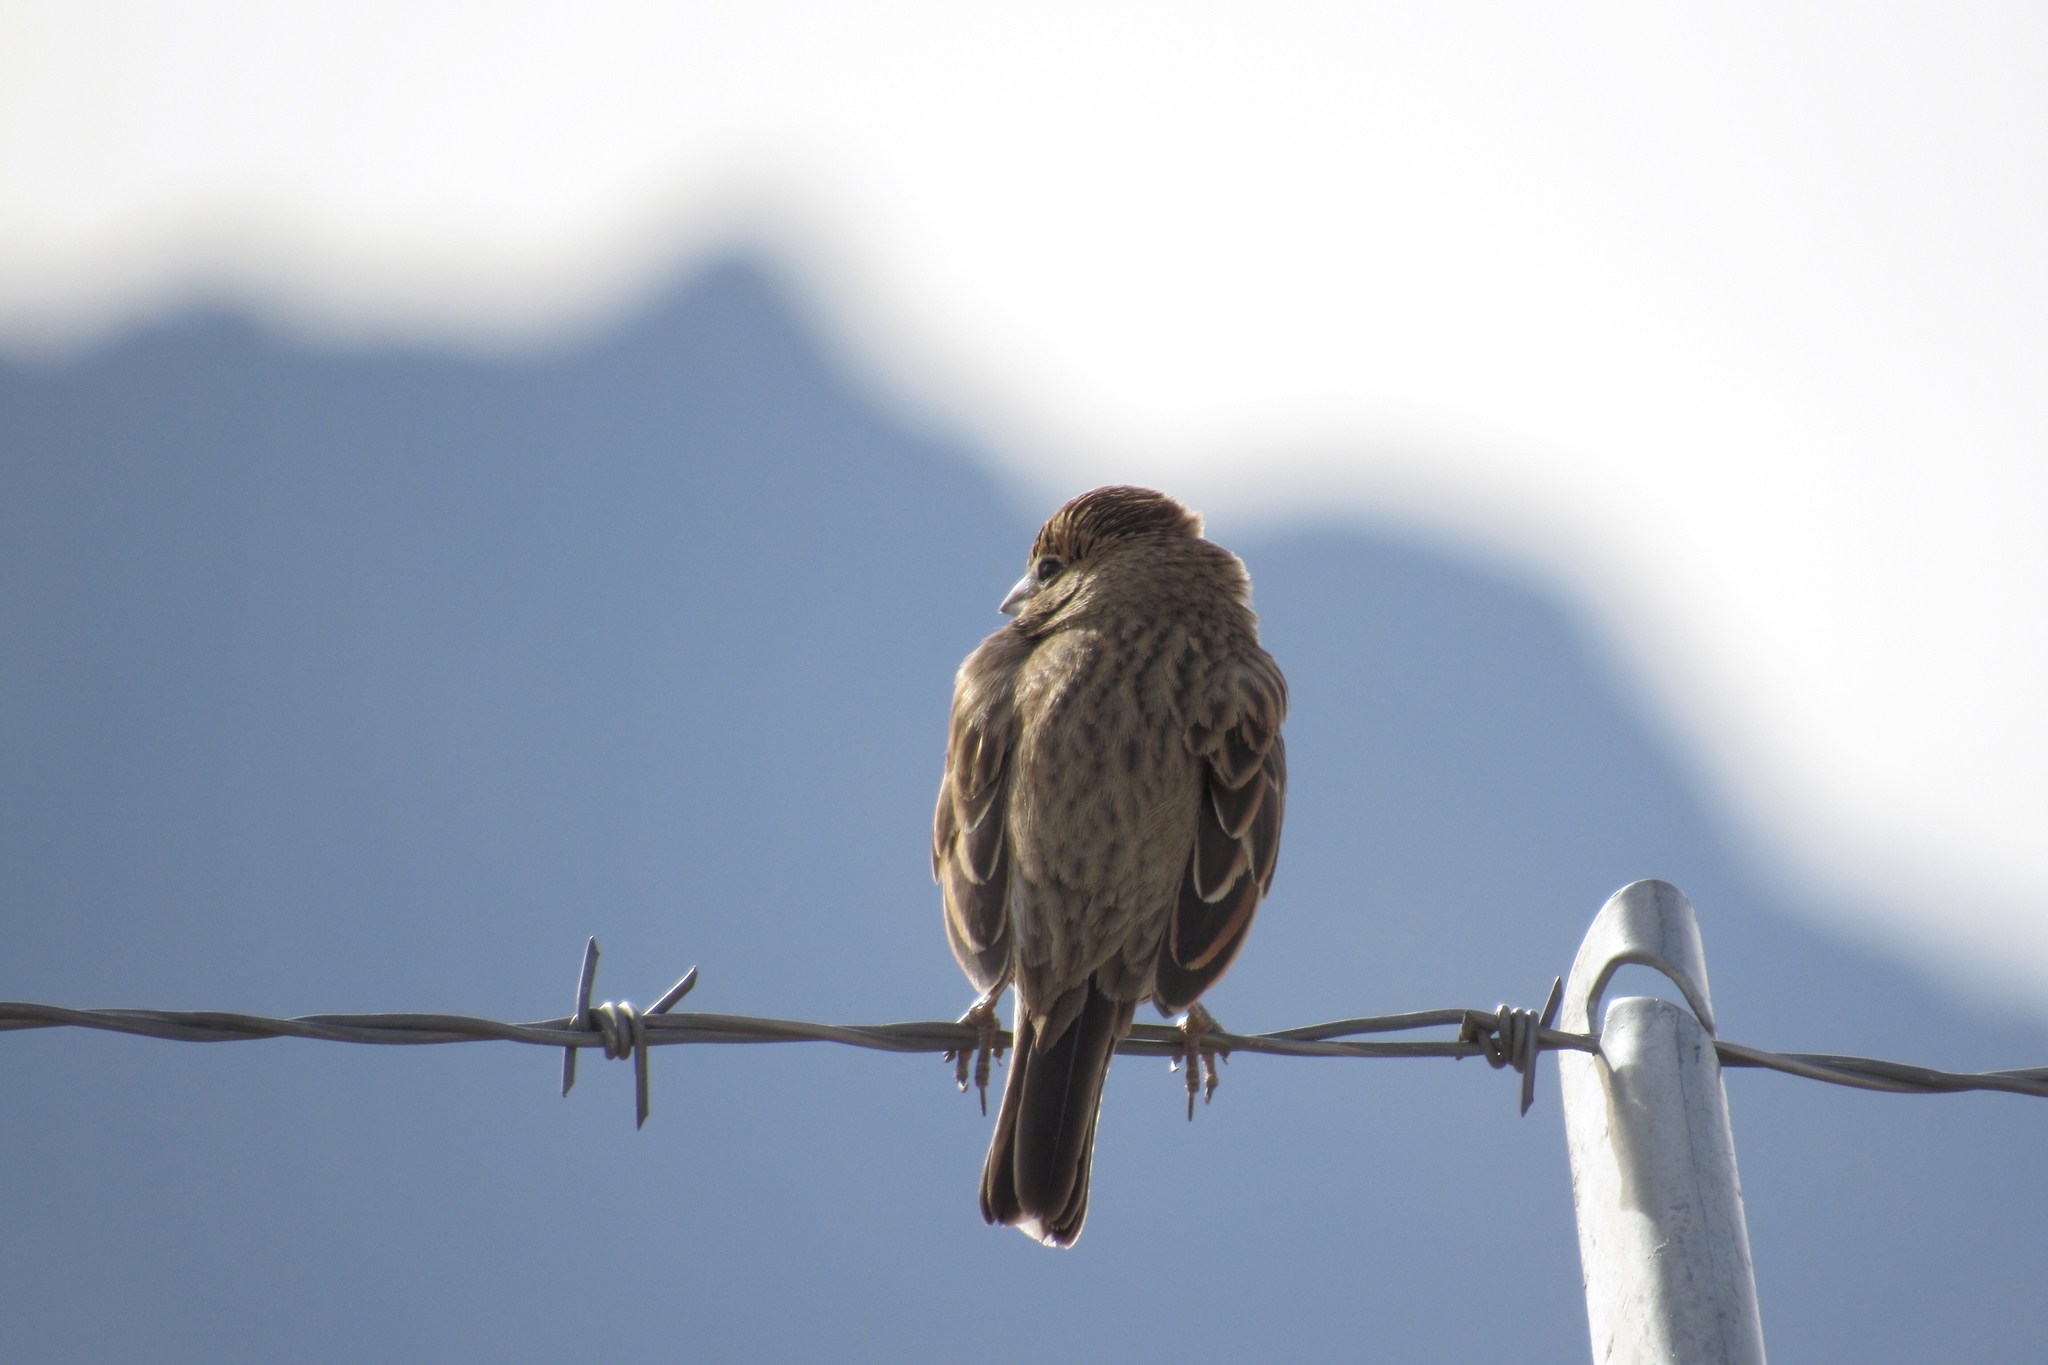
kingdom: Animalia
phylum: Chordata
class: Aves
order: Passeriformes
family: Passerellidae
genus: Calamospiza
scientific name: Calamospiza melanocorys
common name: Lark bunting
